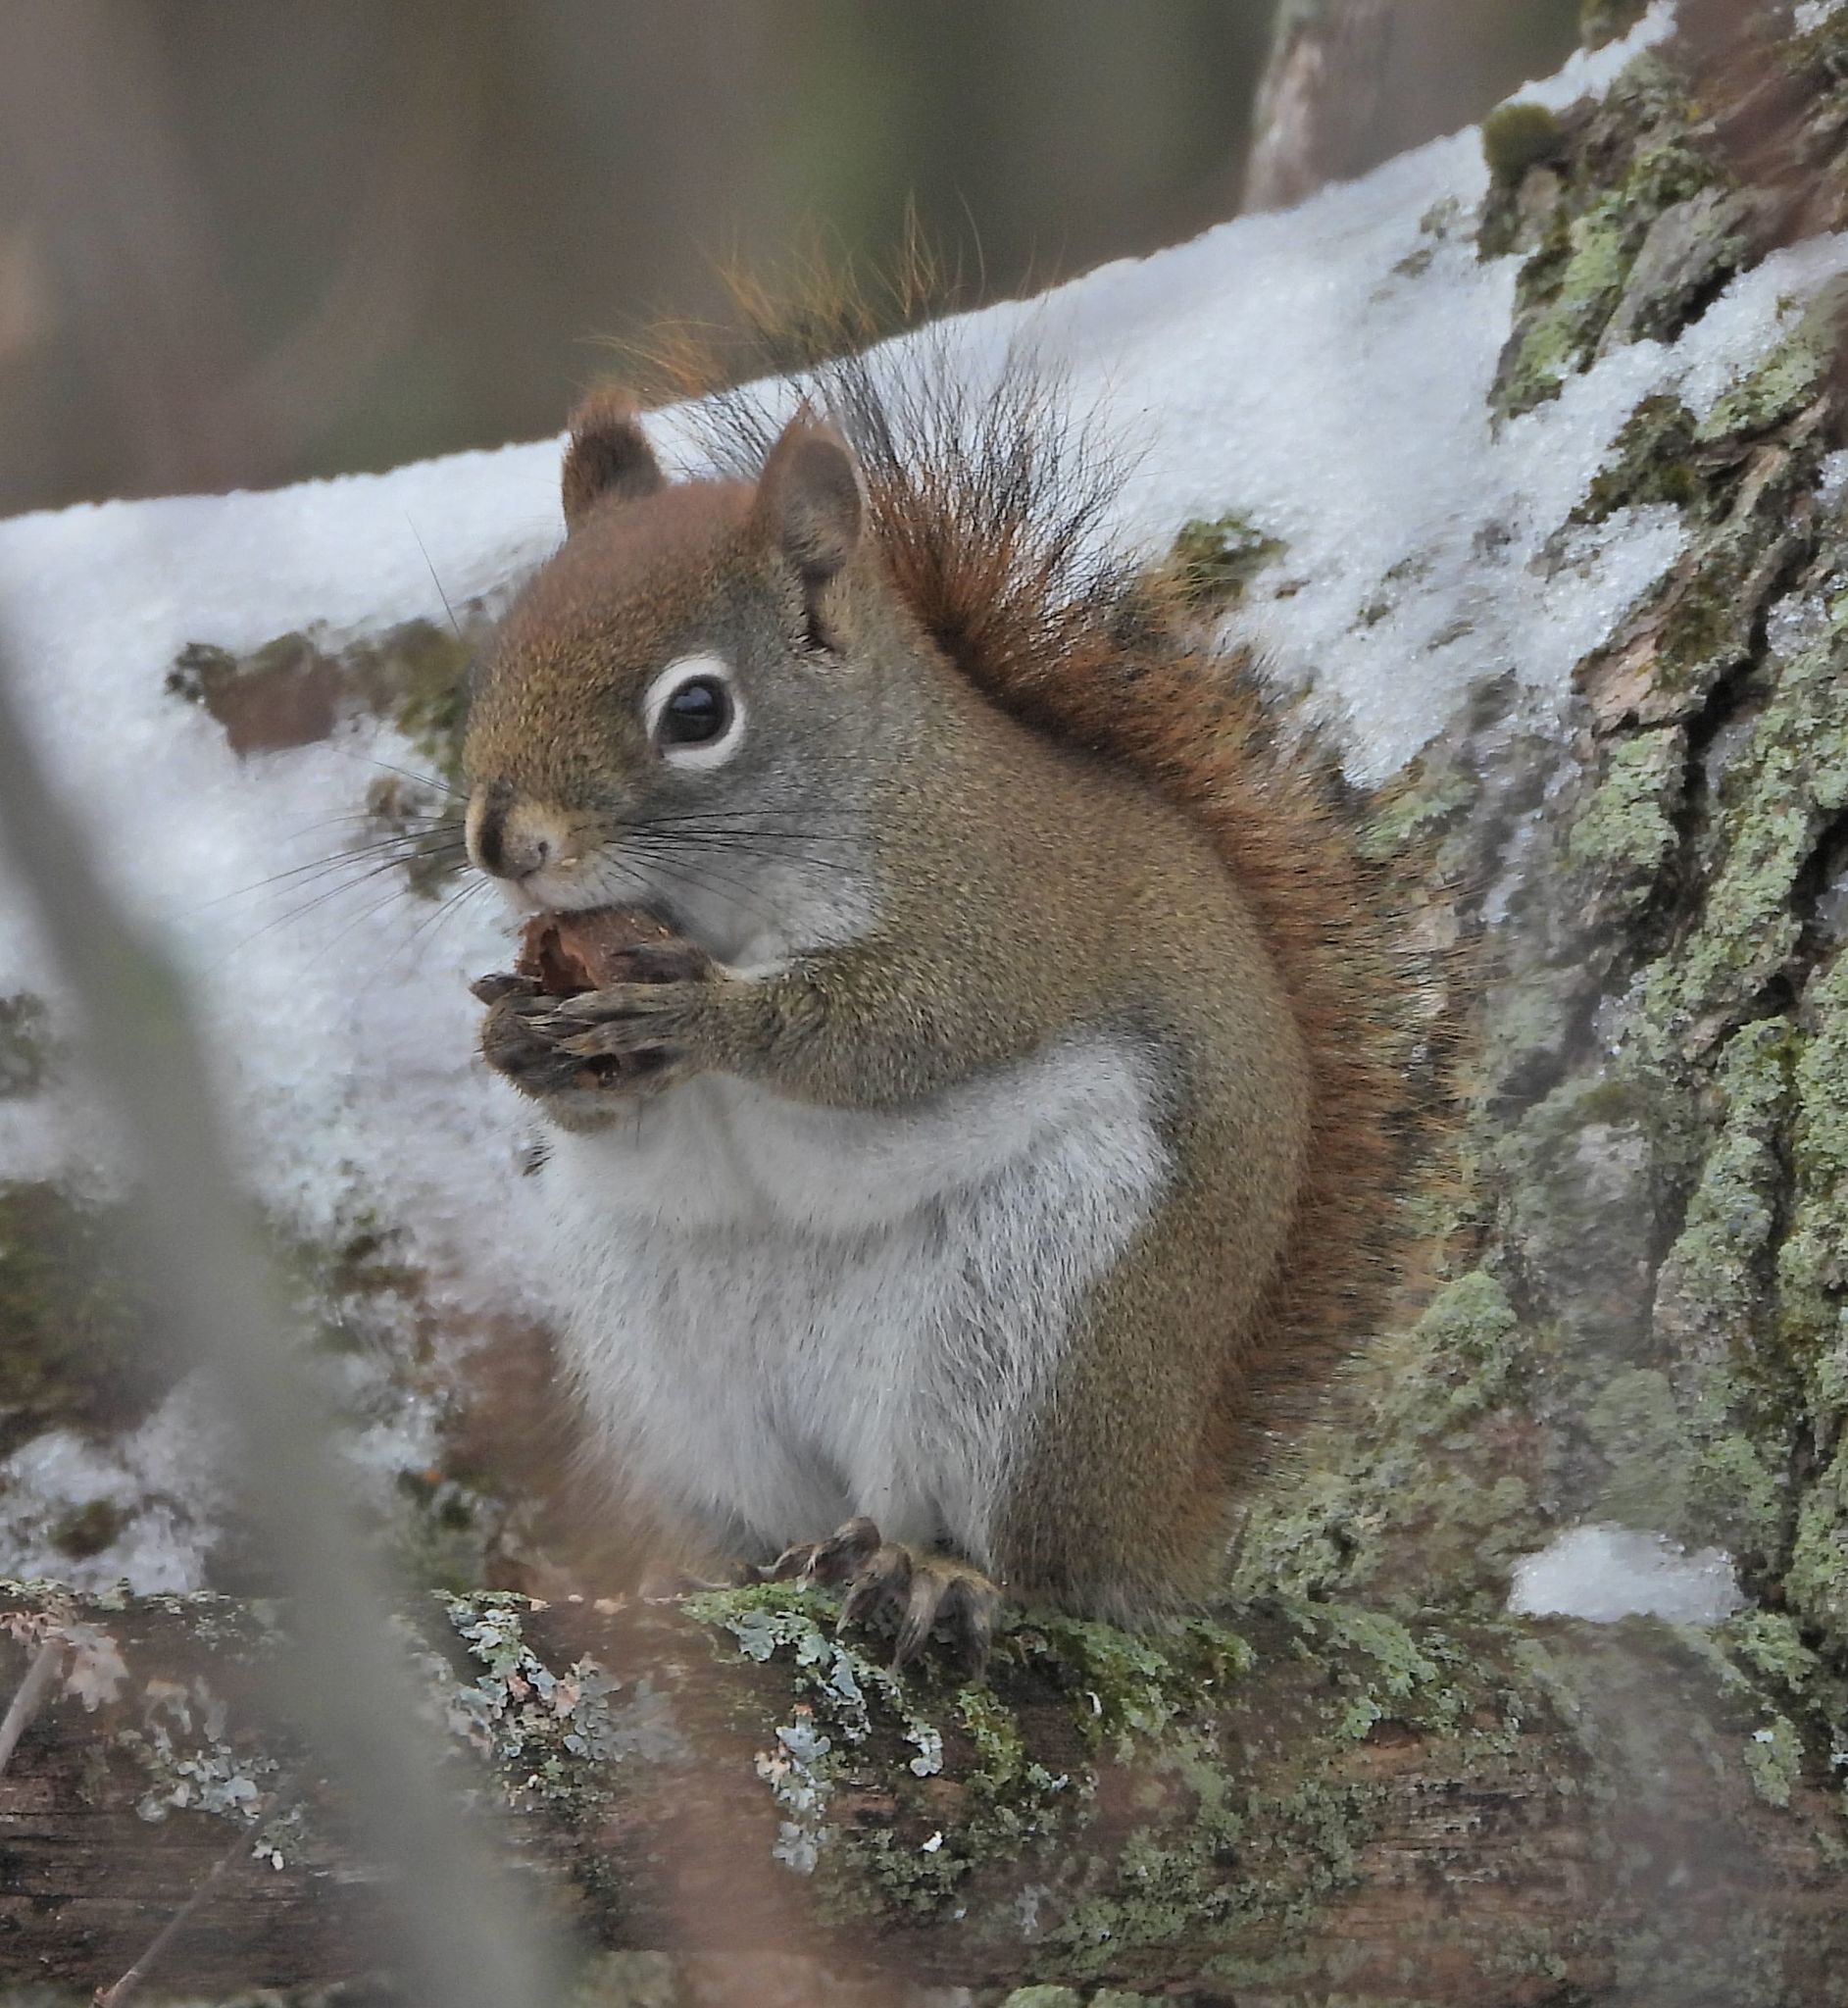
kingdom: Animalia
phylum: Chordata
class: Mammalia
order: Rodentia
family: Sciuridae
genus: Tamiasciurus
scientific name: Tamiasciurus hudsonicus
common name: Red squirrel
